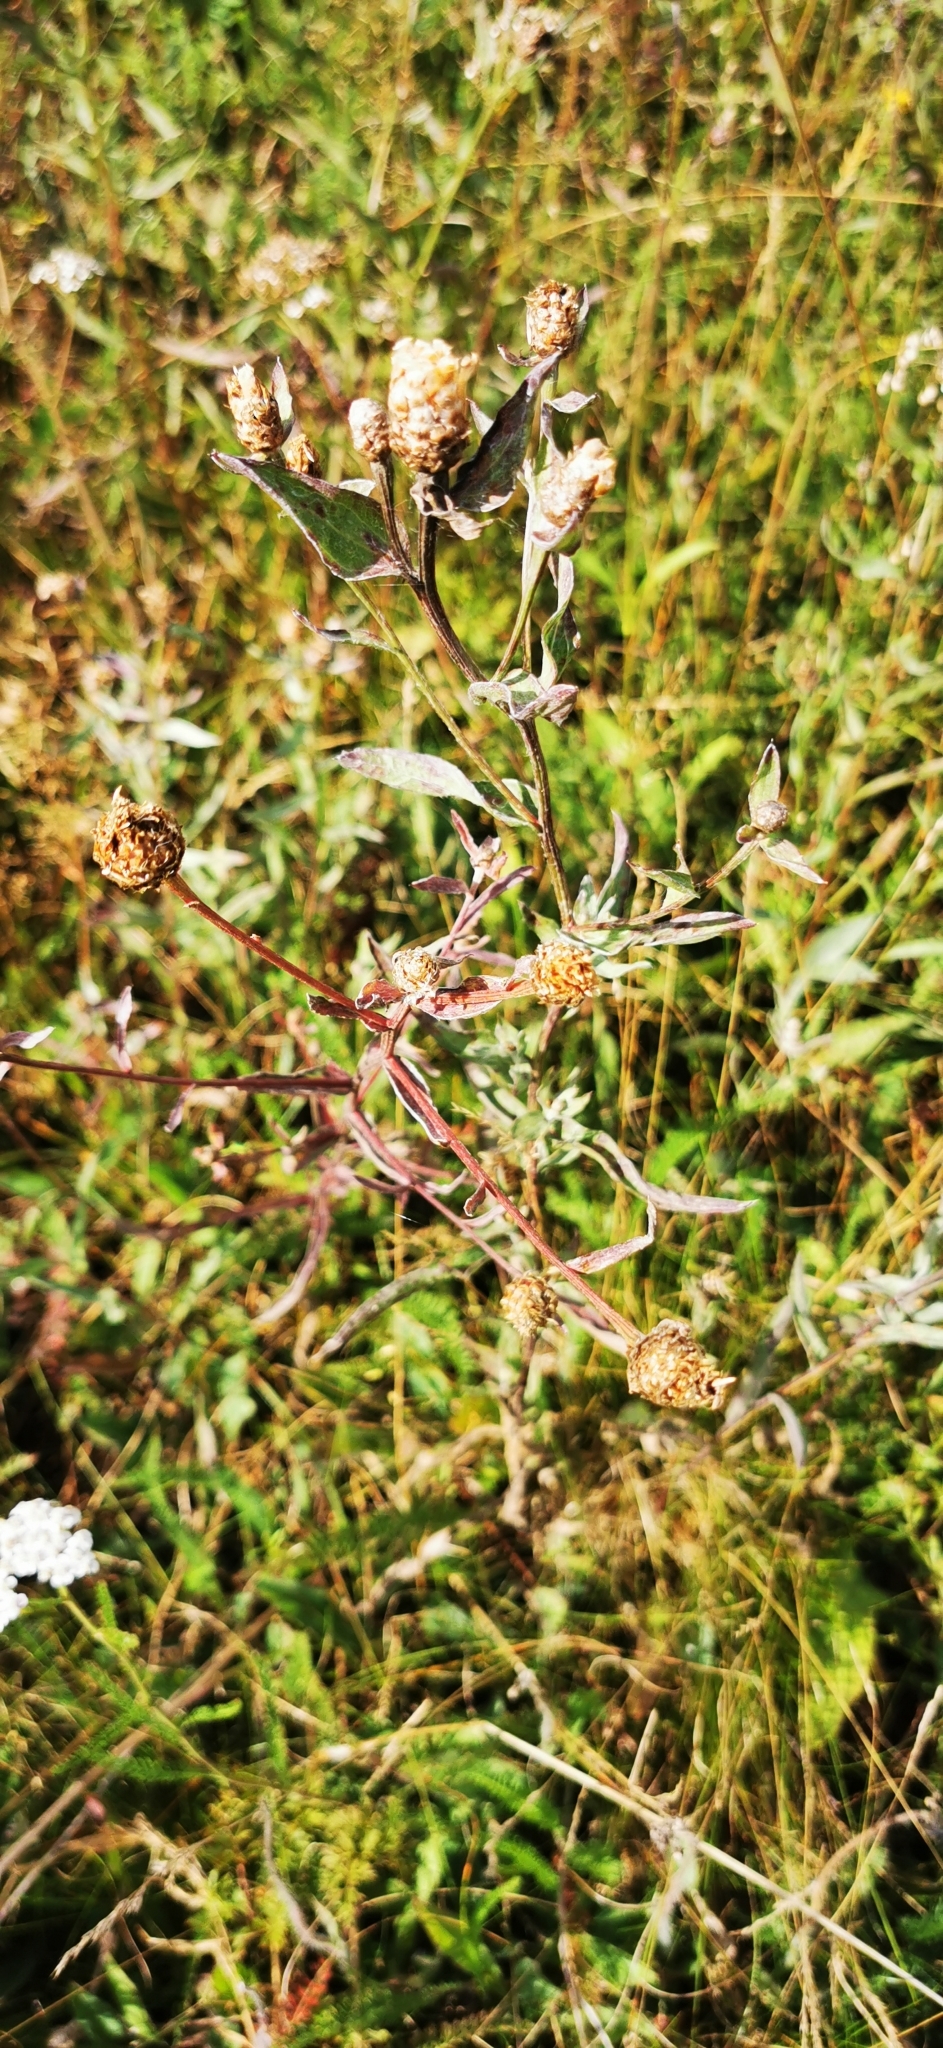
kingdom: Plantae
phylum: Tracheophyta
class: Magnoliopsida
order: Asterales
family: Asteraceae
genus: Centaurea
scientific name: Centaurea jacea
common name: Brown knapweed
